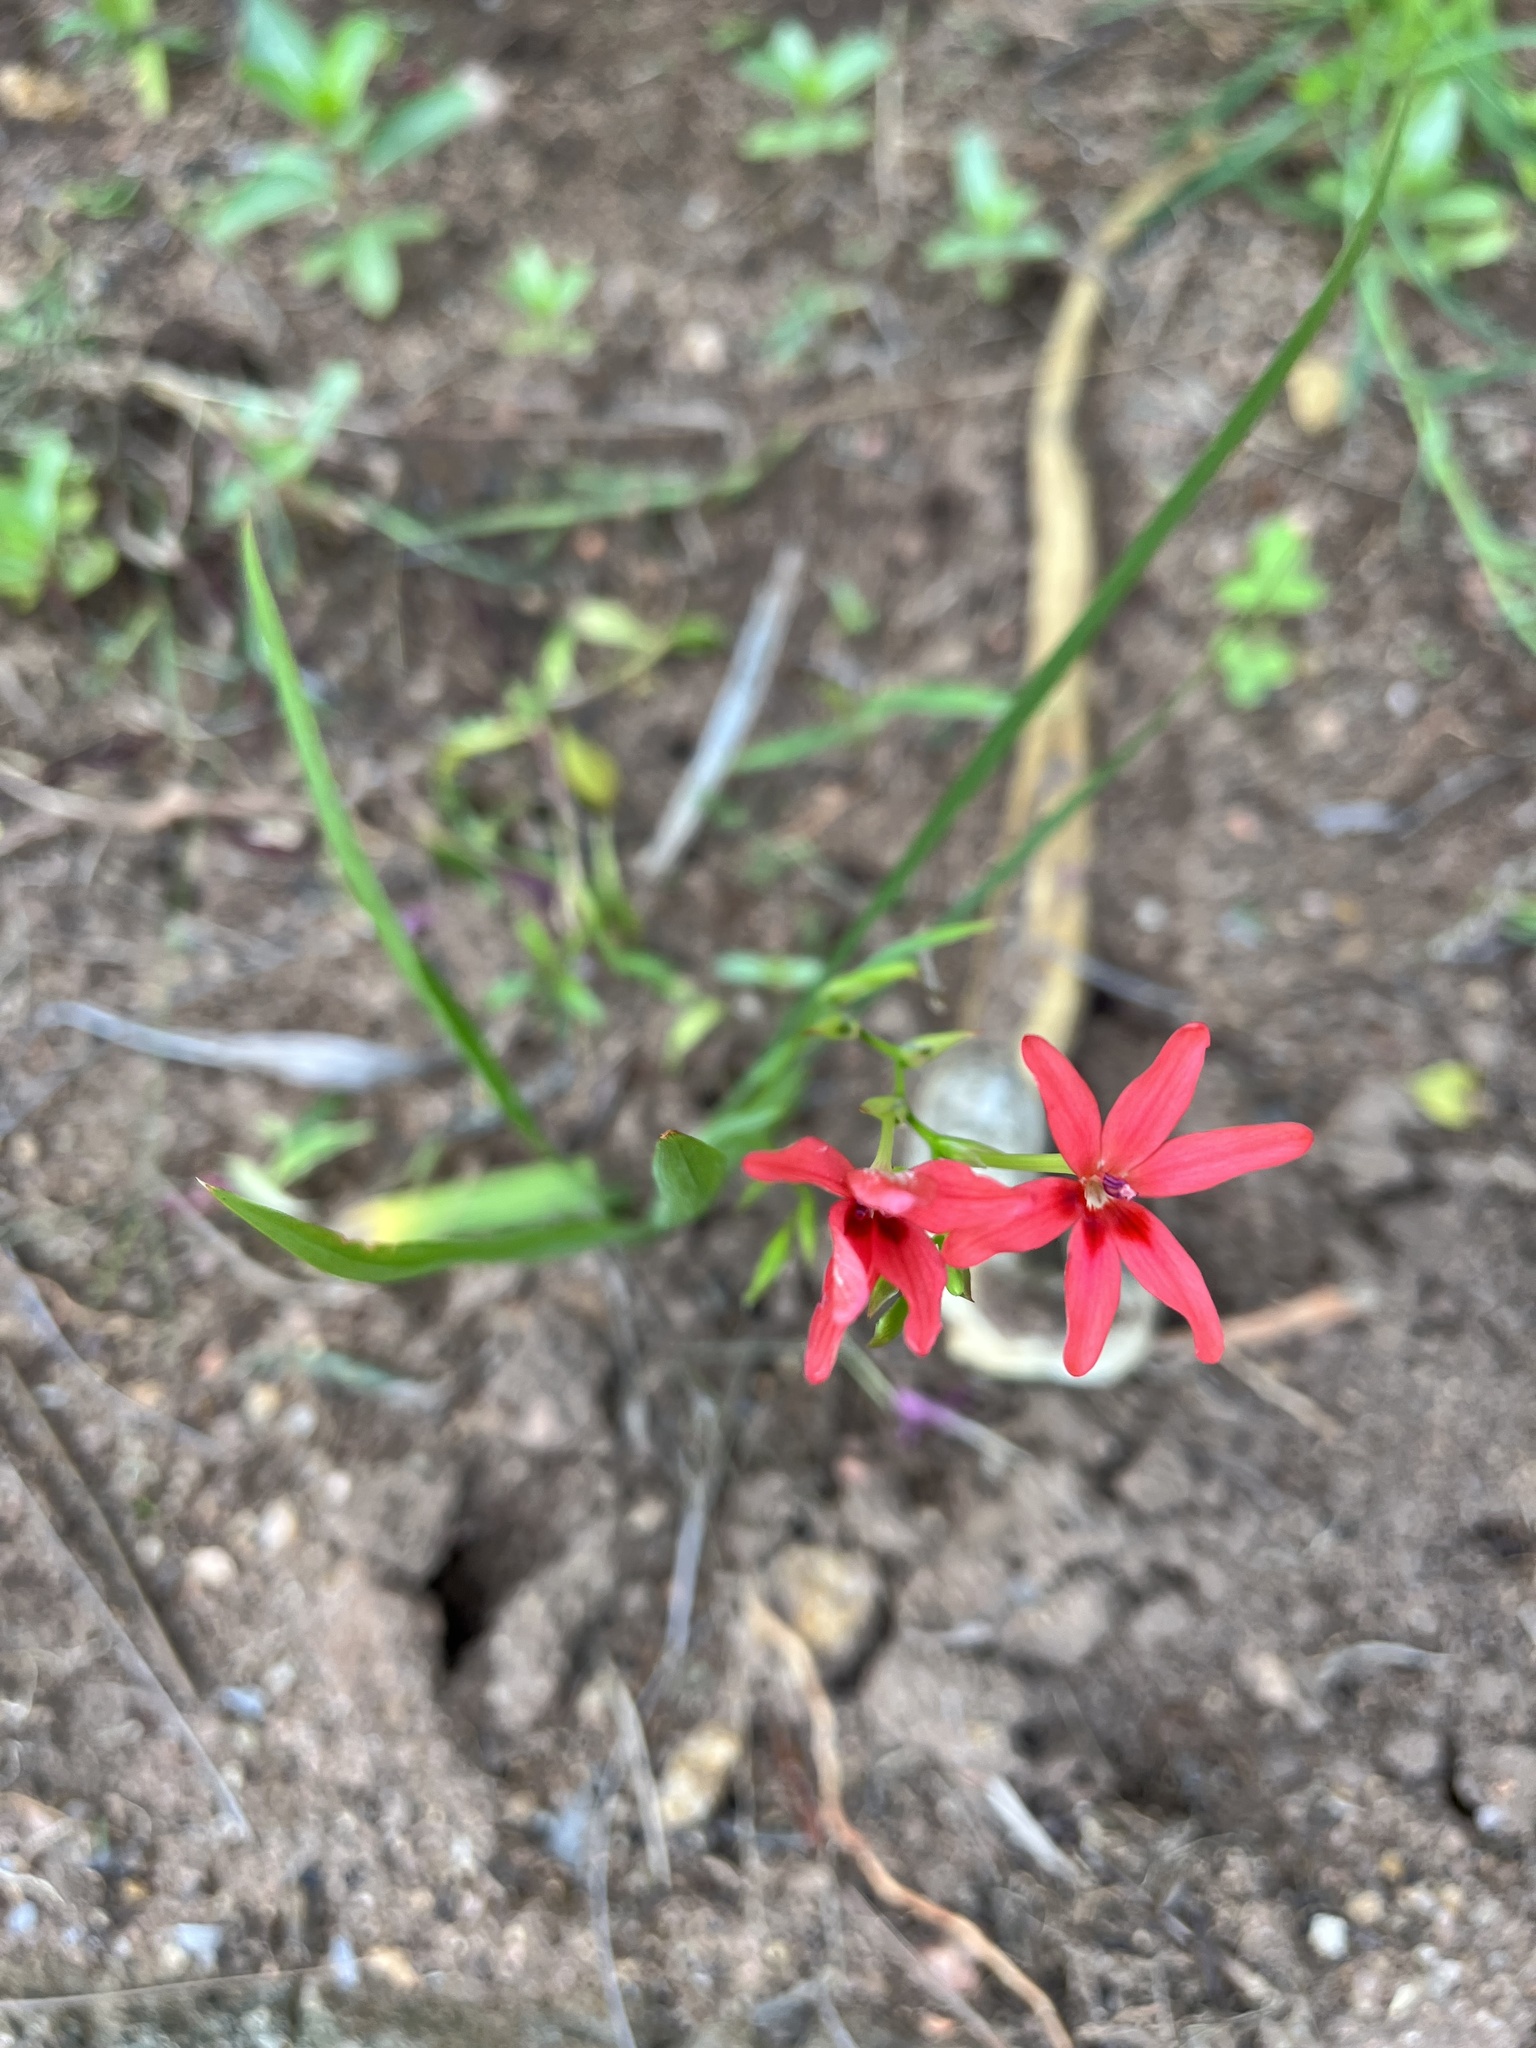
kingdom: Plantae
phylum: Tracheophyta
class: Liliopsida
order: Asparagales
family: Iridaceae
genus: Freesia
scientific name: Freesia laxa
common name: False freesia
